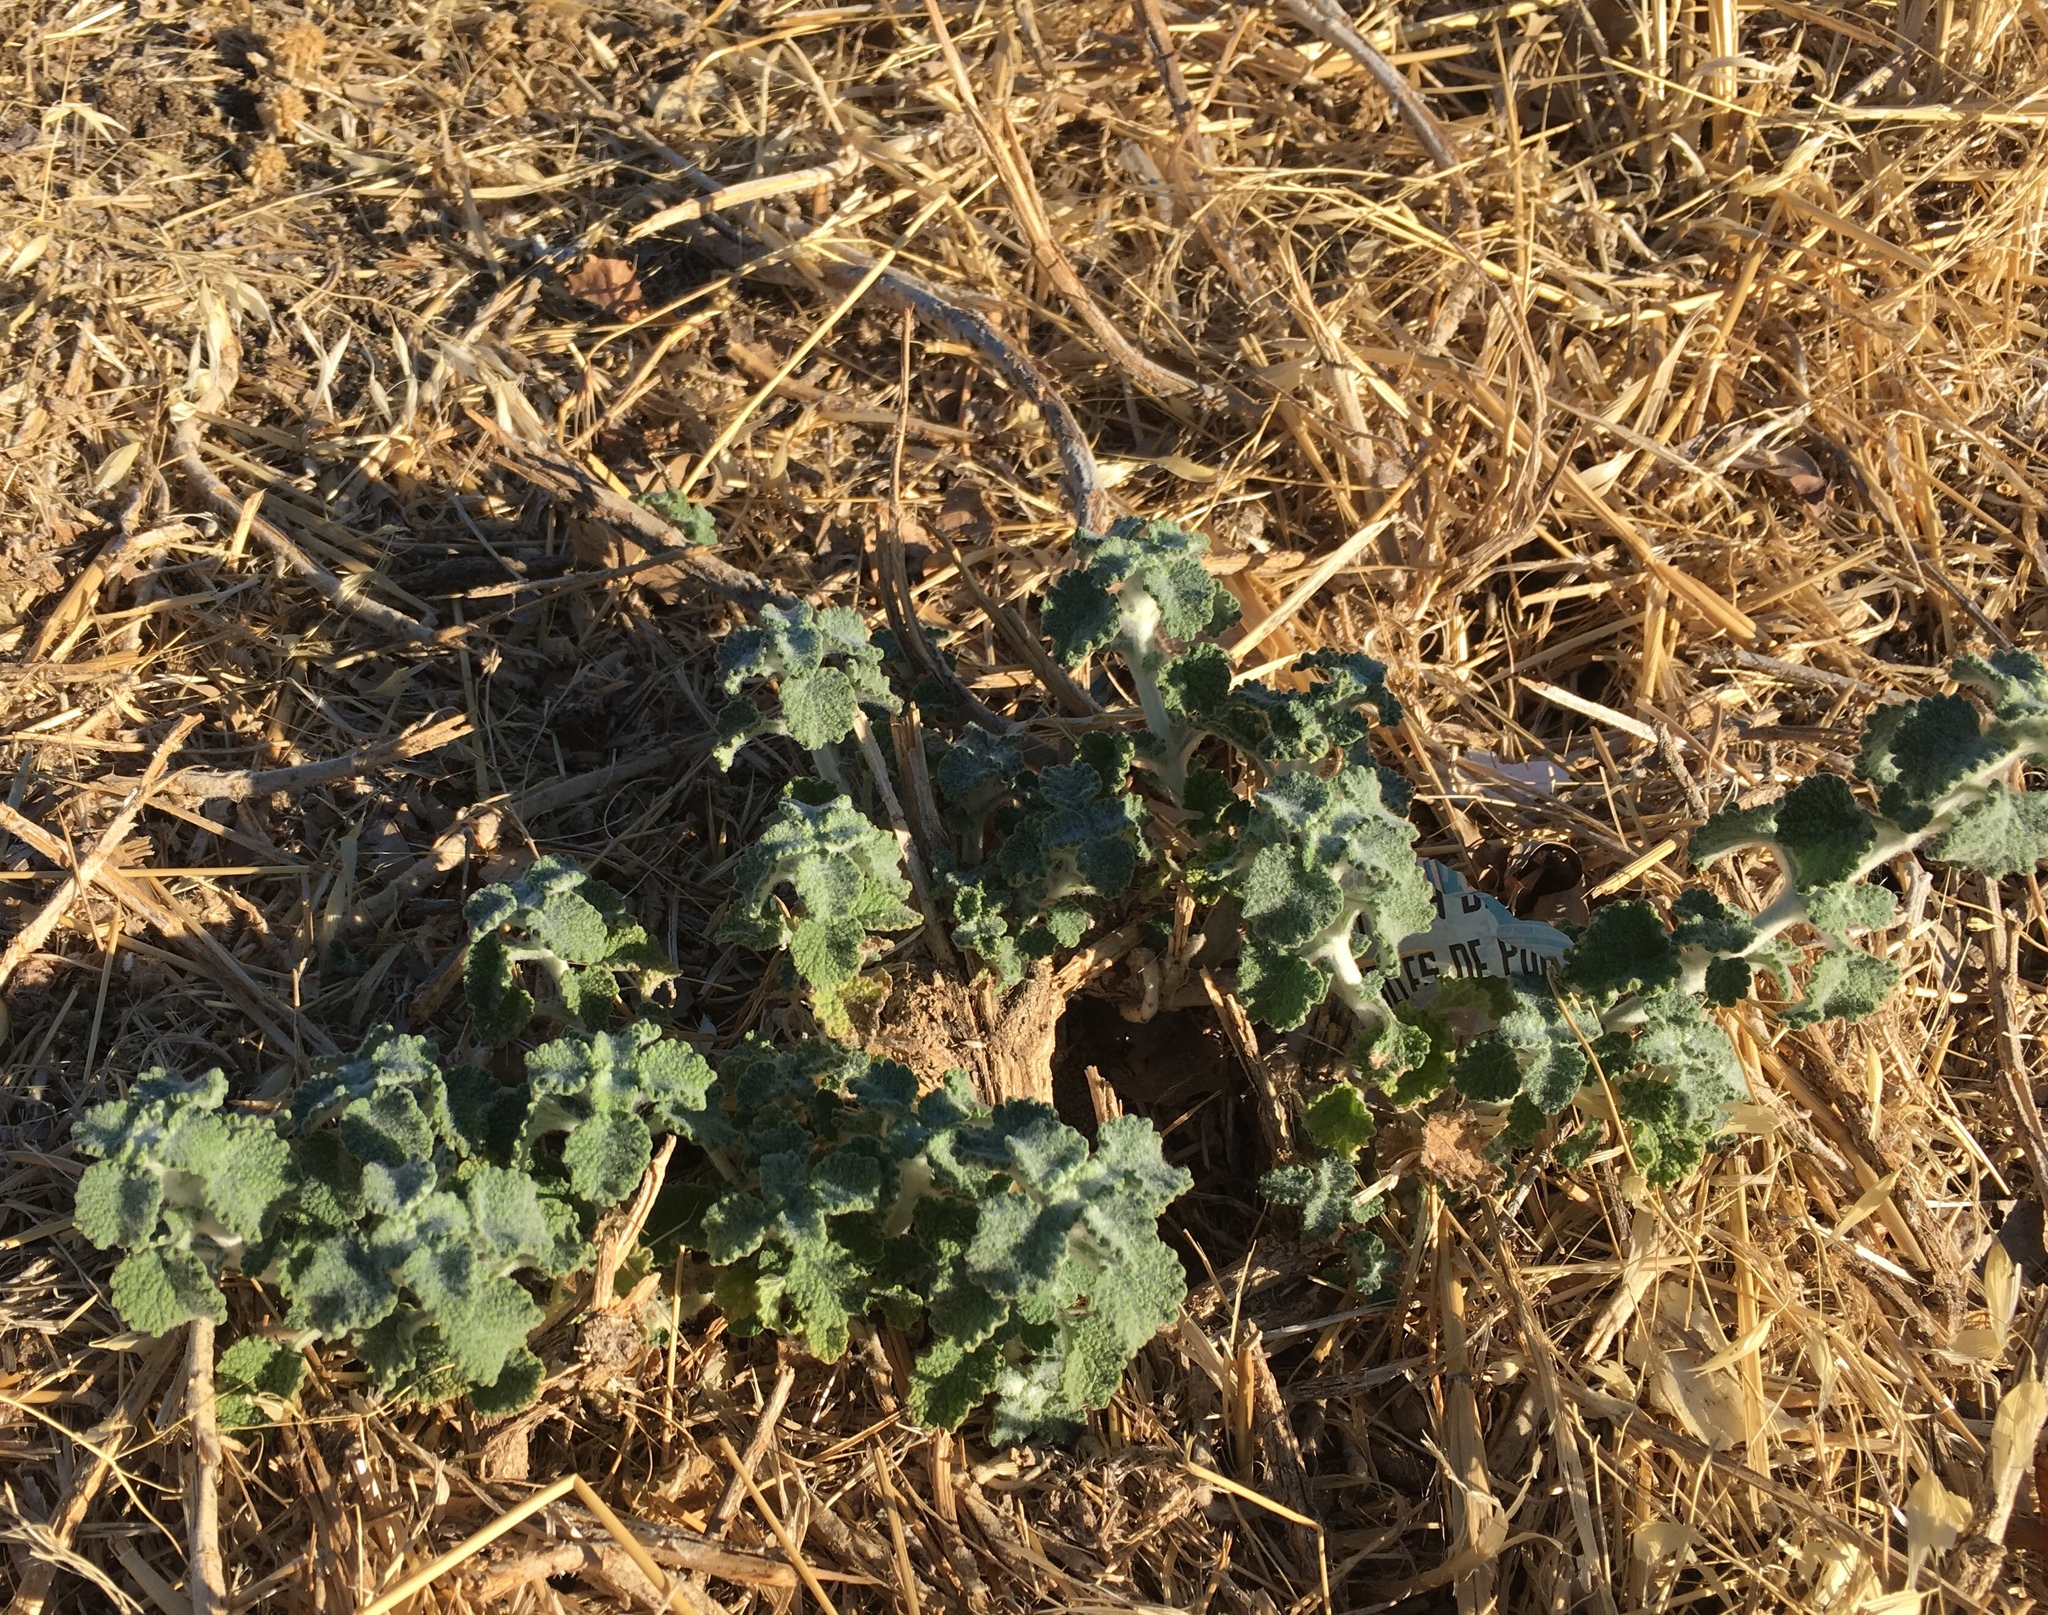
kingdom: Plantae
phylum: Tracheophyta
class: Magnoliopsida
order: Lamiales
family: Lamiaceae
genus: Marrubium
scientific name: Marrubium vulgare
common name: Horehound
